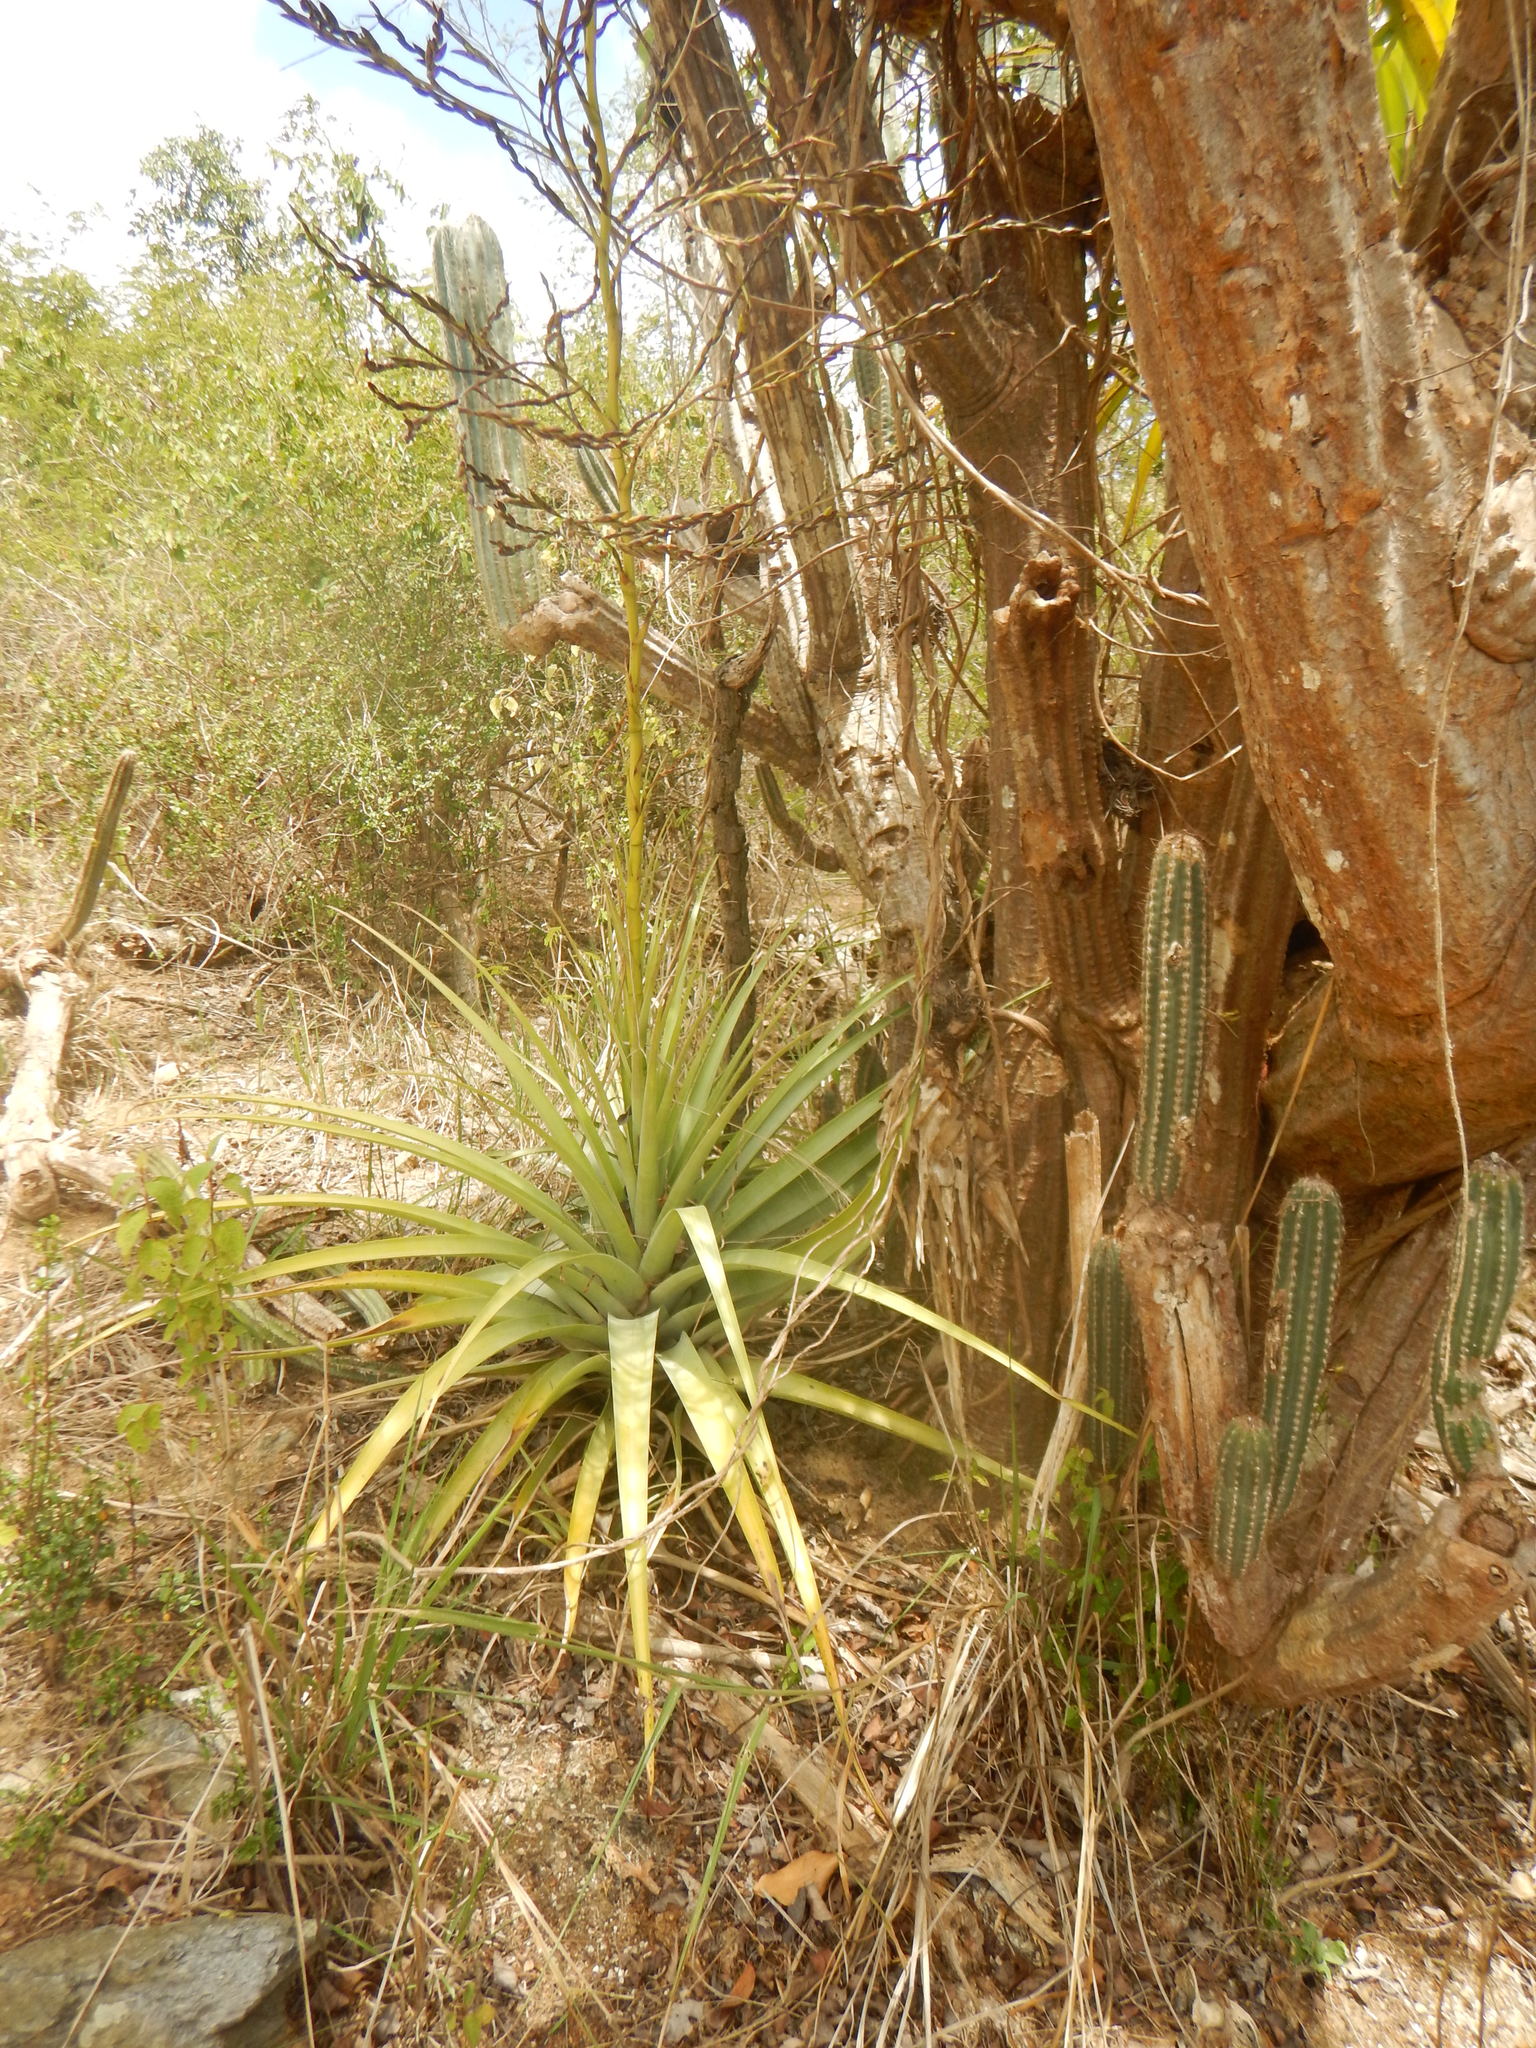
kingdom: Plantae
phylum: Tracheophyta
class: Liliopsida
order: Poales
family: Bromeliaceae
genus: Tillandsia
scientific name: Tillandsia utriculata
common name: Wild pine
